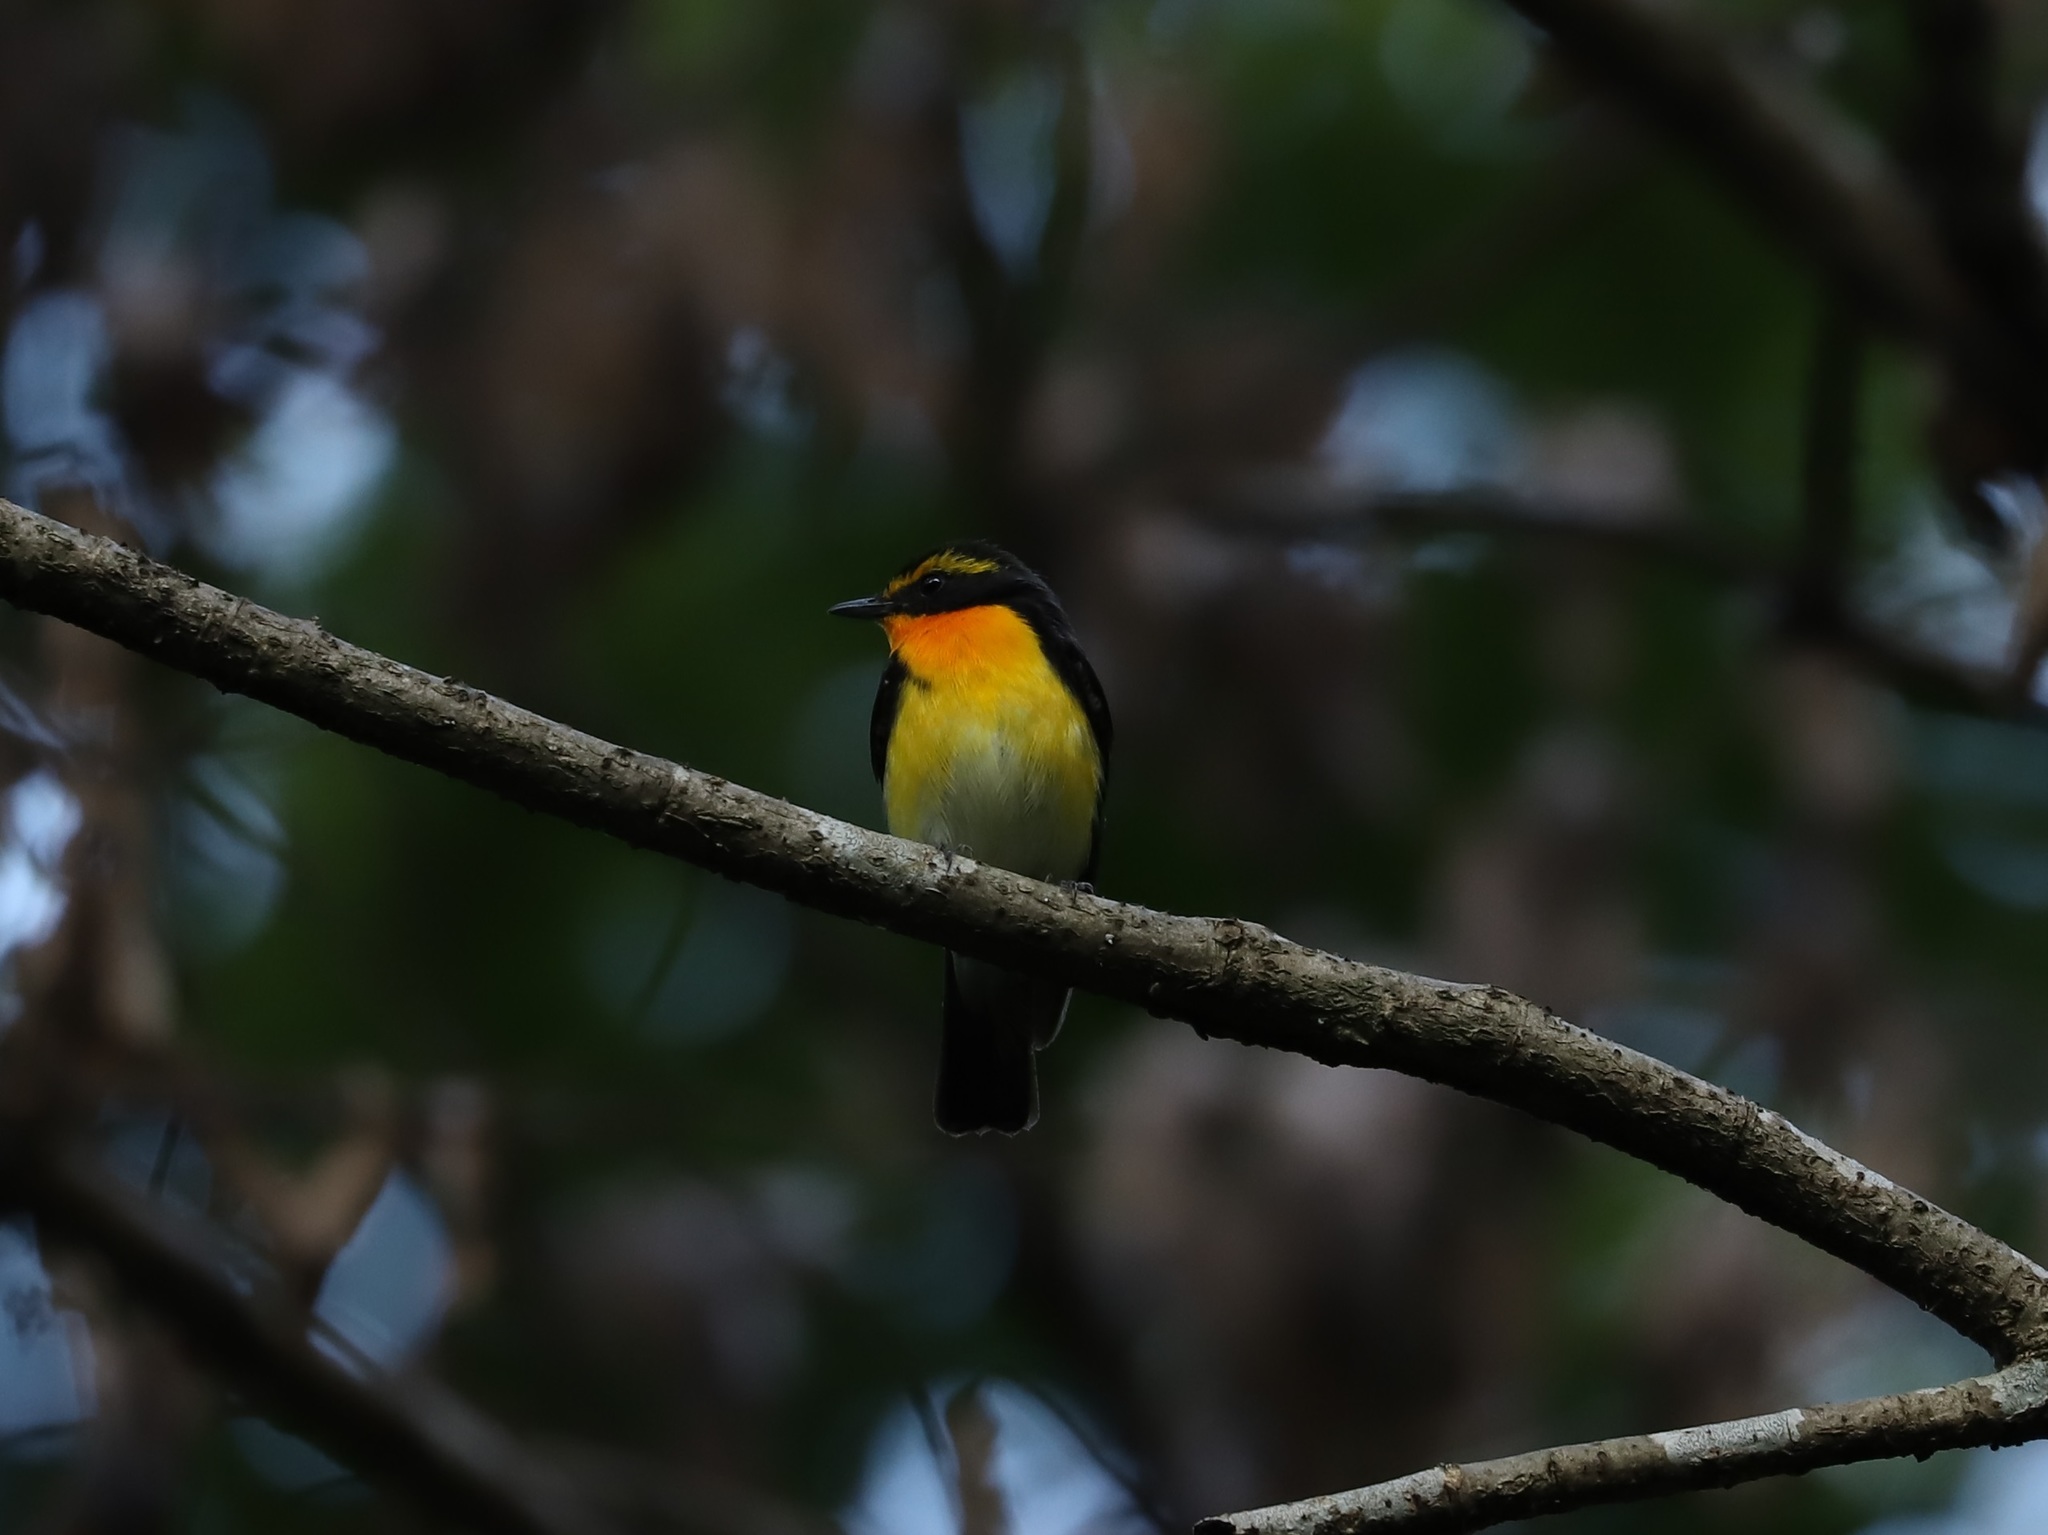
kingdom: Animalia
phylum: Chordata
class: Aves
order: Passeriformes
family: Muscicapidae
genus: Ficedula
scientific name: Ficedula narcissina
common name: Narcissus flycatcher
